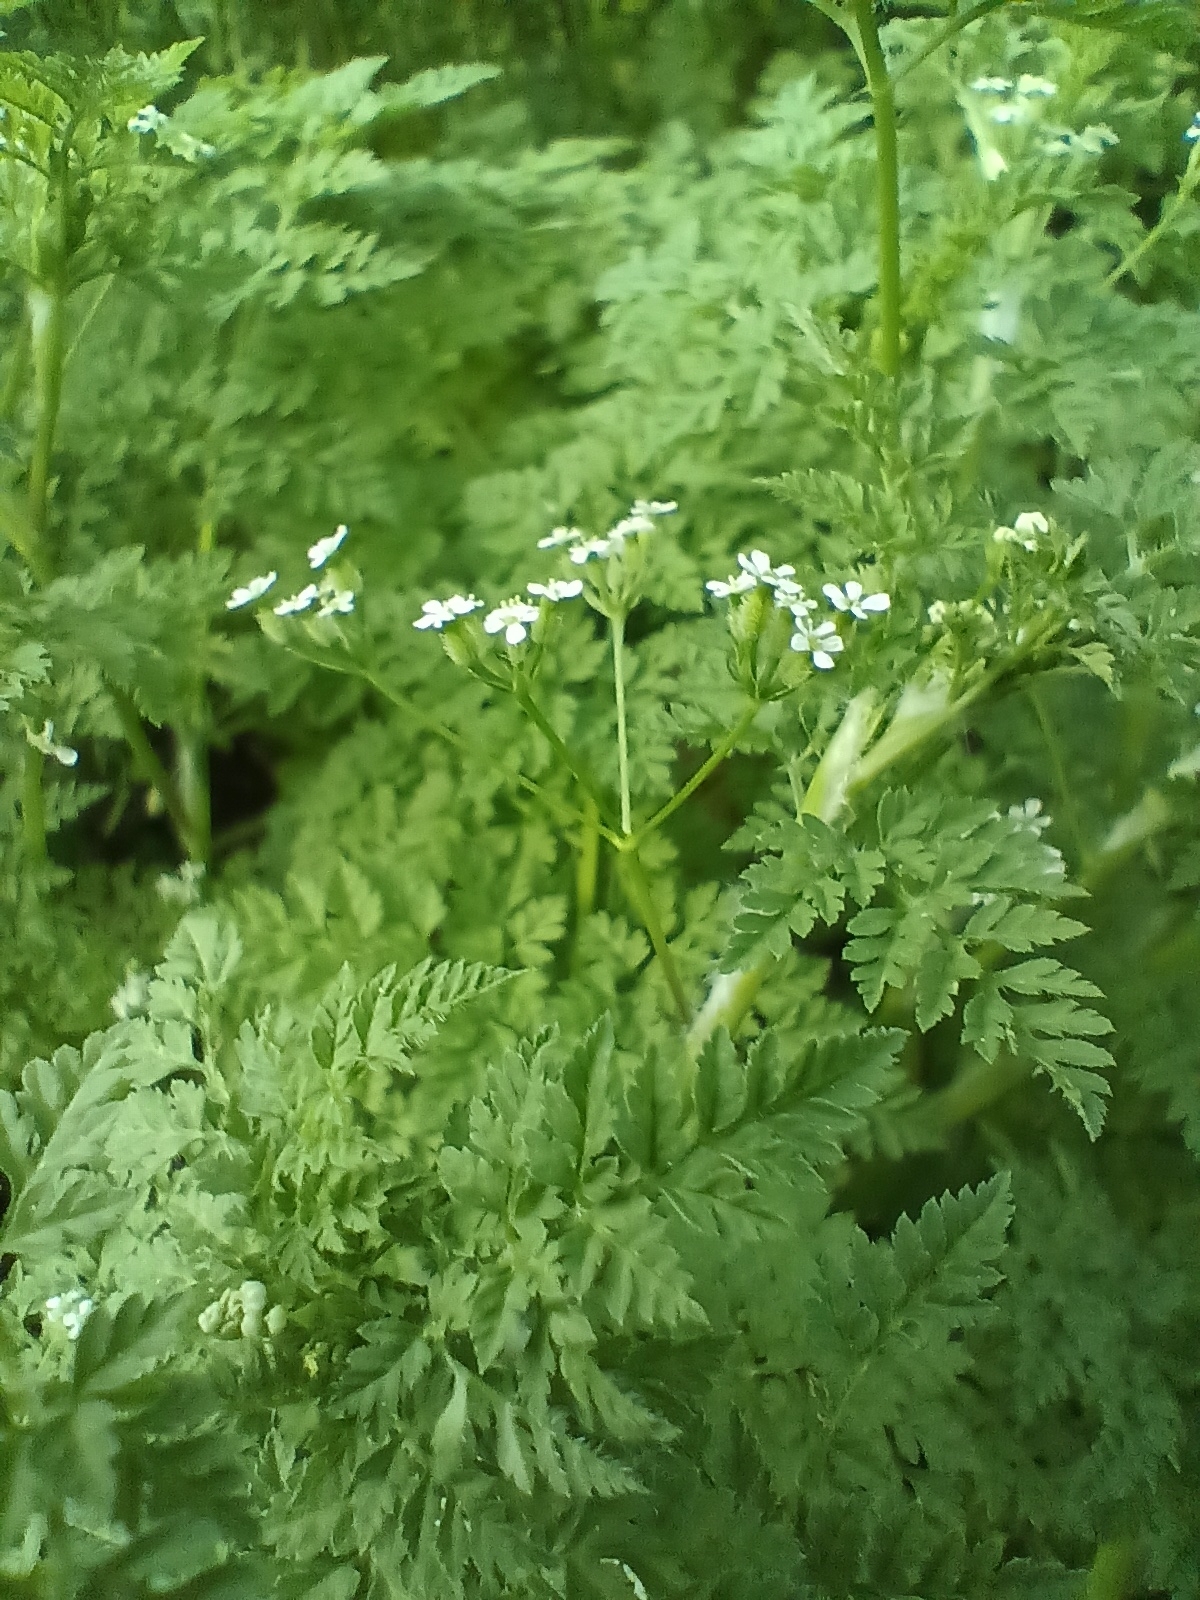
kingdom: Plantae
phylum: Tracheophyta
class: Magnoliopsida
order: Apiales
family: Apiaceae
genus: Anthriscus
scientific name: Anthriscus caucalis
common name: Bur chervil
